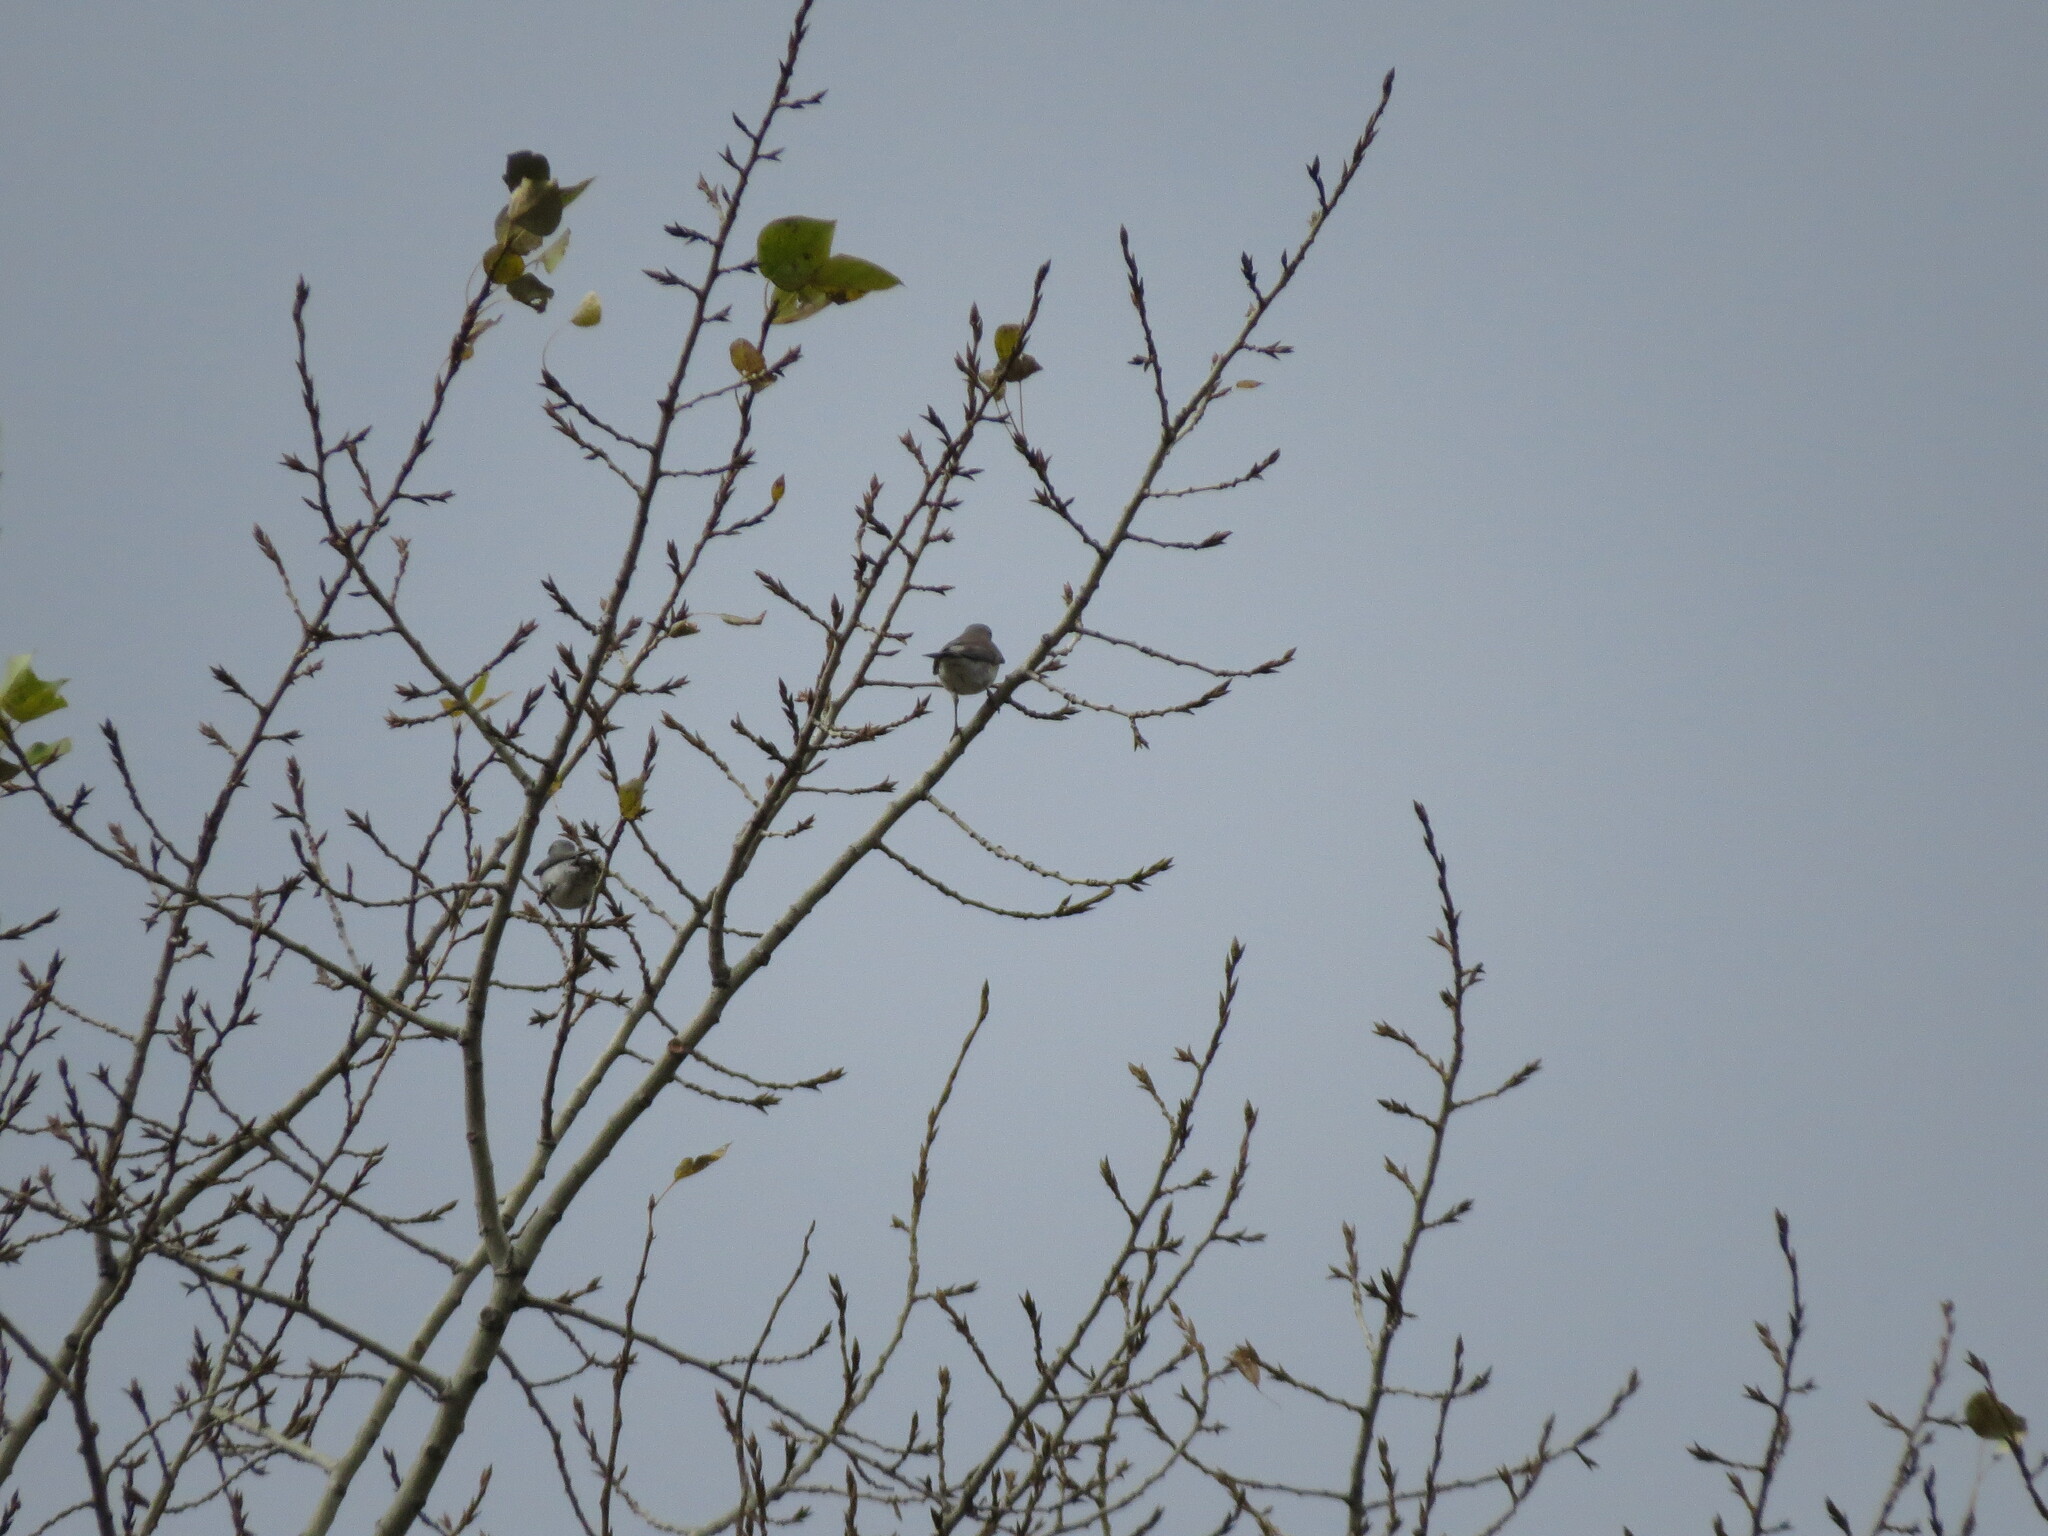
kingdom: Animalia
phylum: Chordata
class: Aves
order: Passeriformes
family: Turdidae
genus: Turdus
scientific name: Turdus pilaris
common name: Fieldfare
